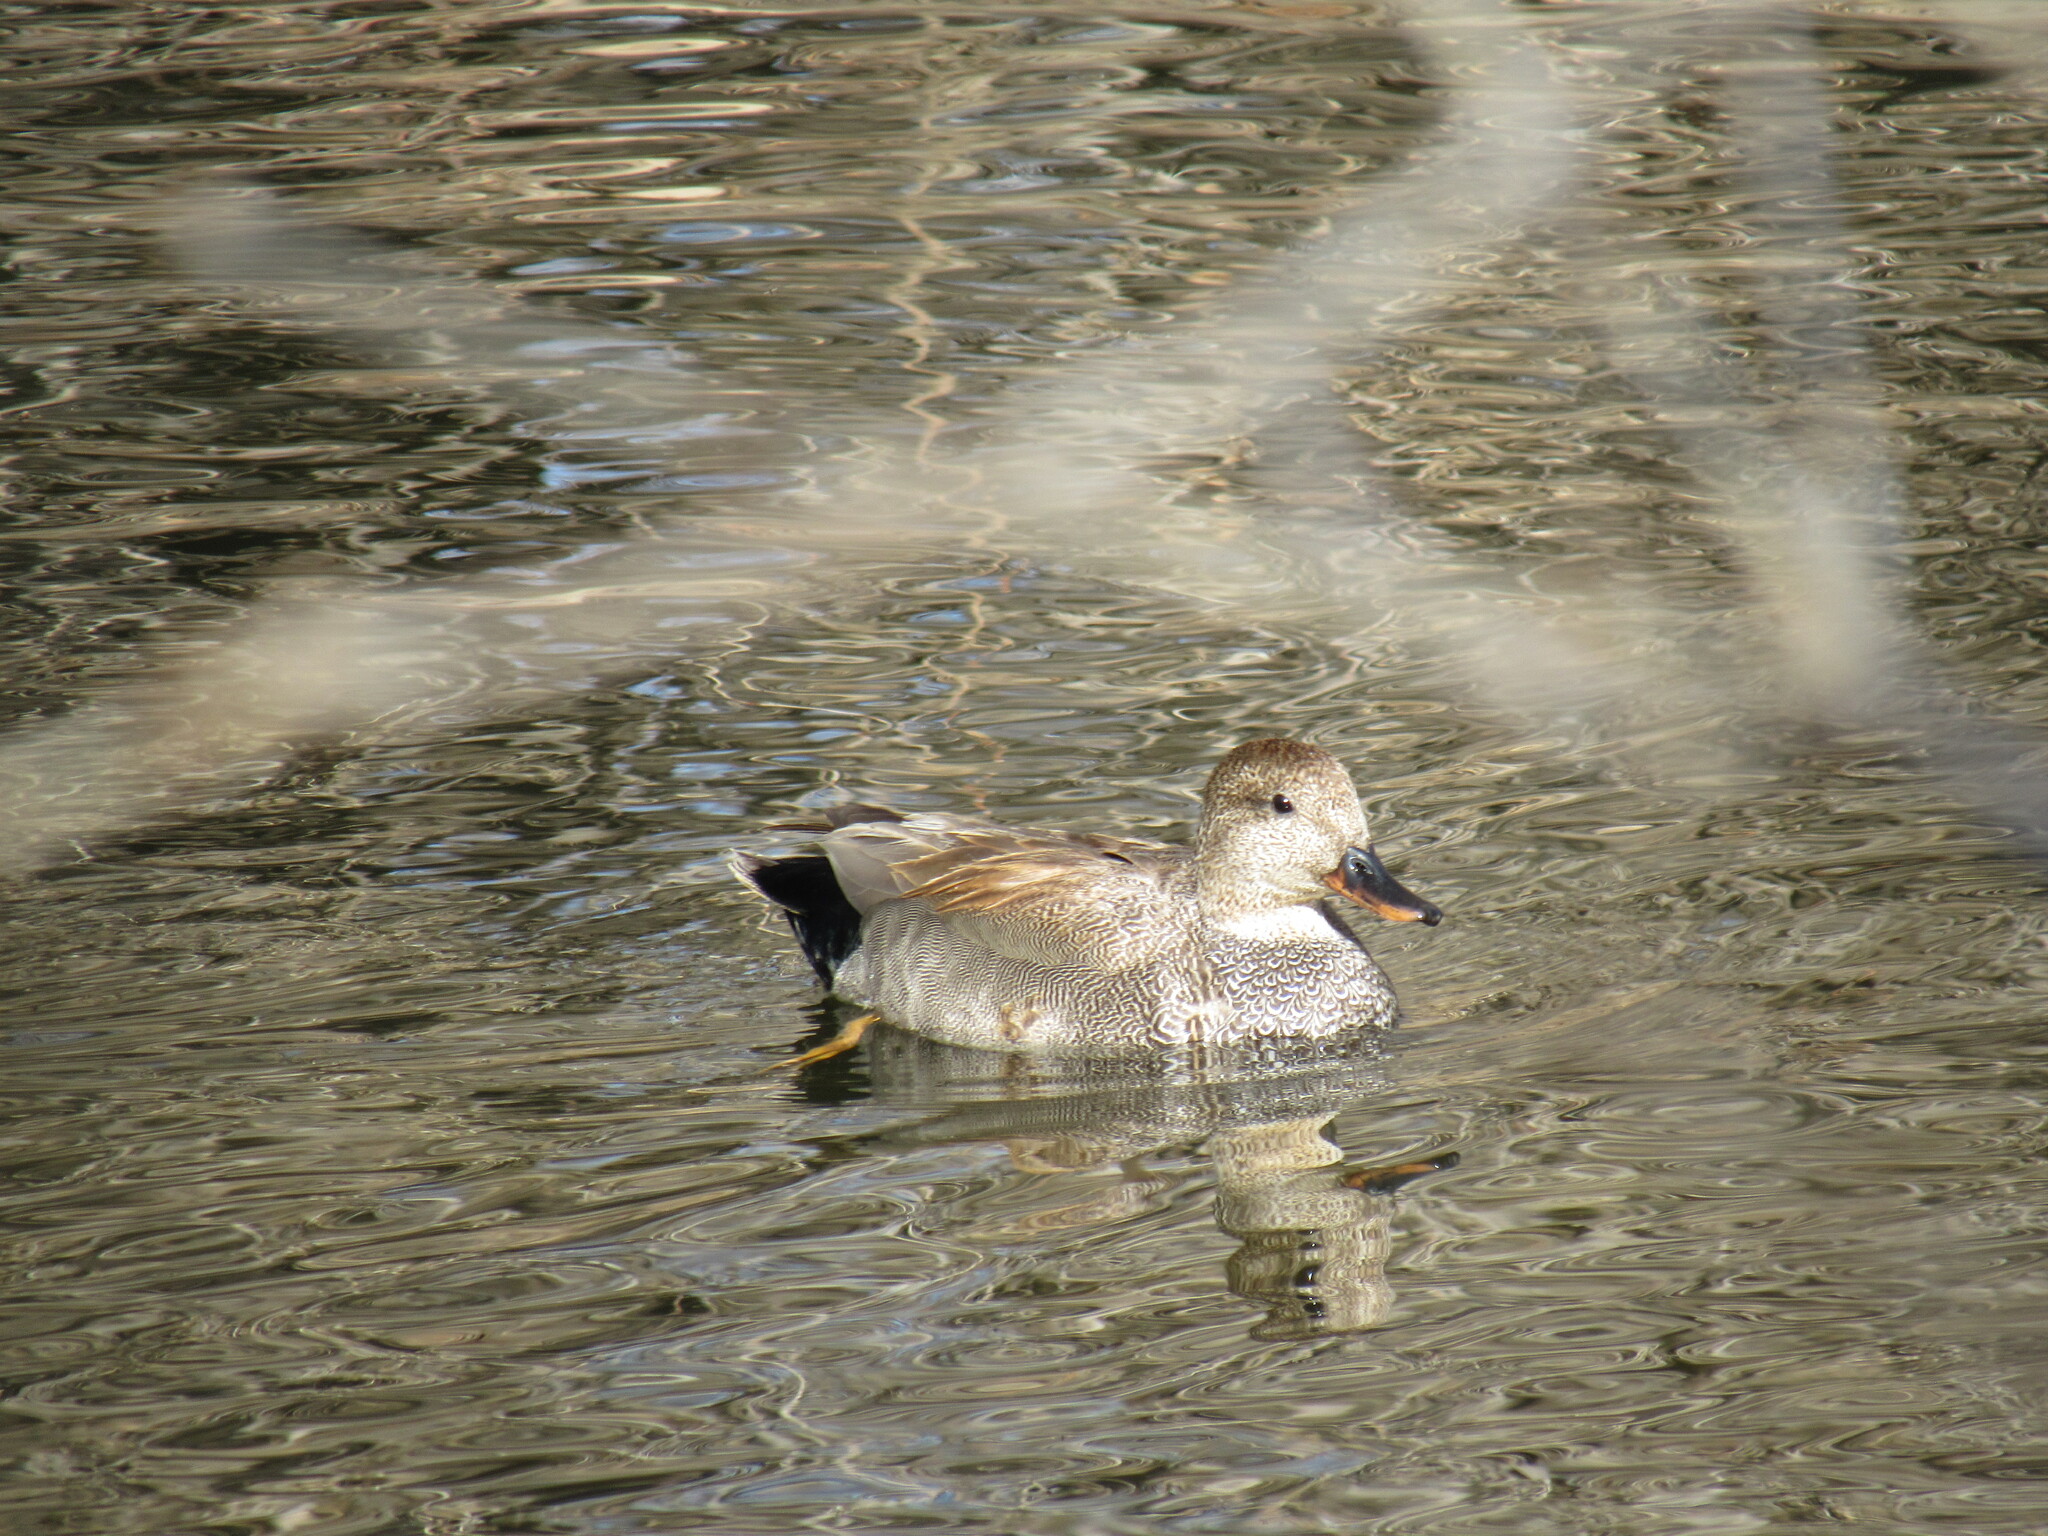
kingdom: Animalia
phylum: Chordata
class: Aves
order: Anseriformes
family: Anatidae
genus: Mareca
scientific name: Mareca strepera
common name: Gadwall
